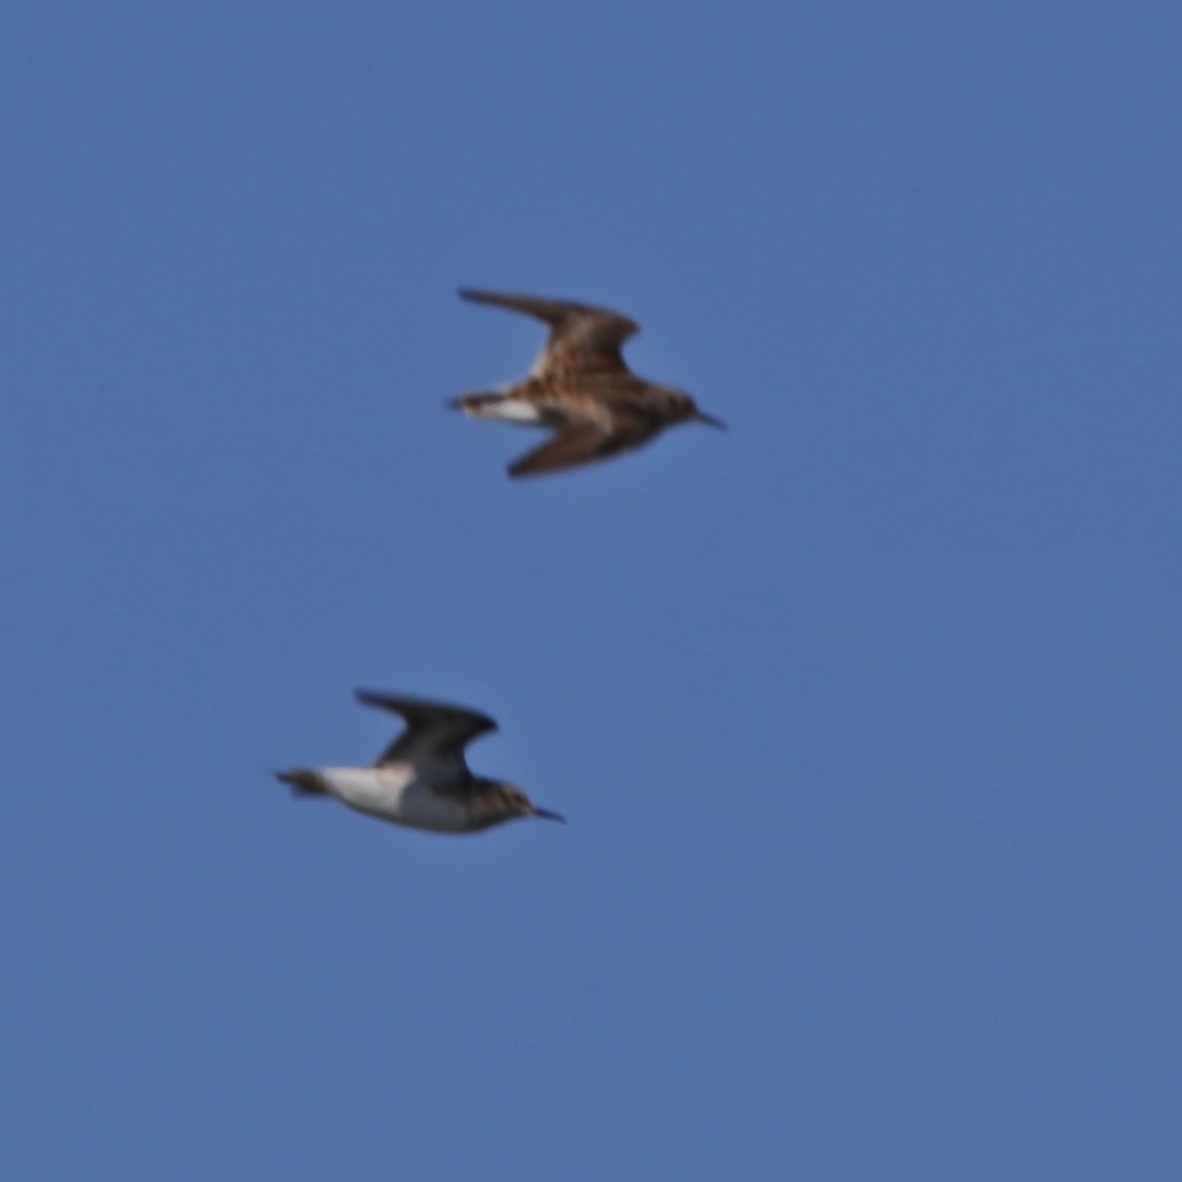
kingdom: Animalia
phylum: Chordata
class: Aves
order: Charadriiformes
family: Scolopacidae
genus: Calidris
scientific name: Calidris subminuta
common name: Long-toed stint
